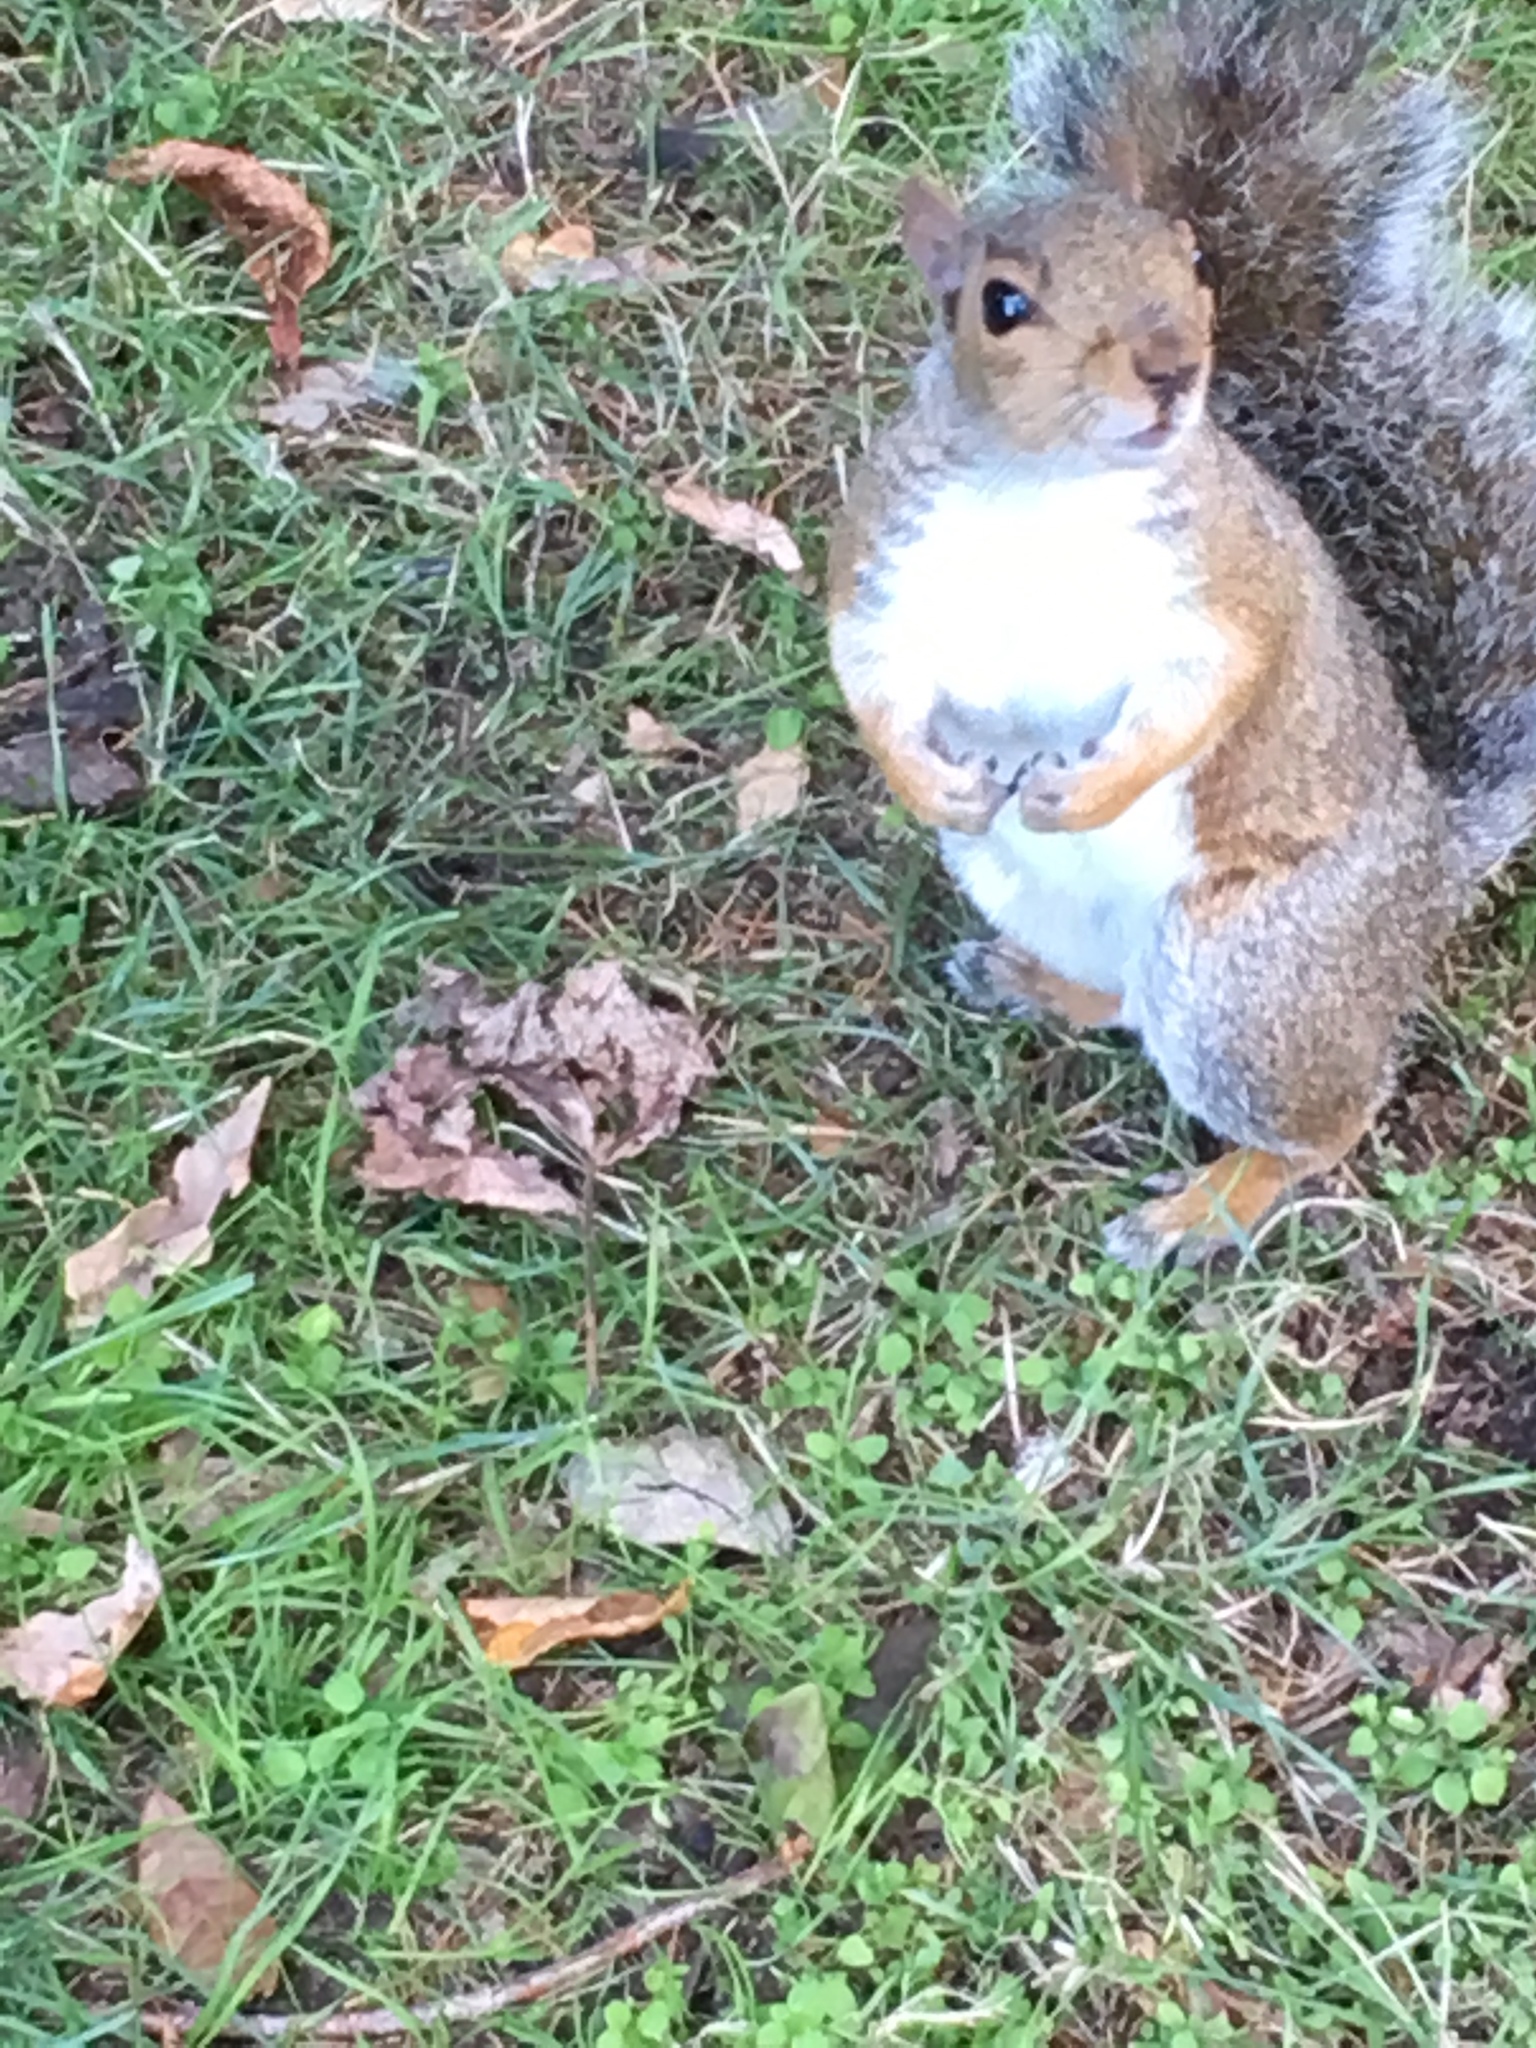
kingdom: Animalia
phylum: Chordata
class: Mammalia
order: Rodentia
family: Sciuridae
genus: Sciurus
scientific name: Sciurus carolinensis
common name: Eastern gray squirrel
